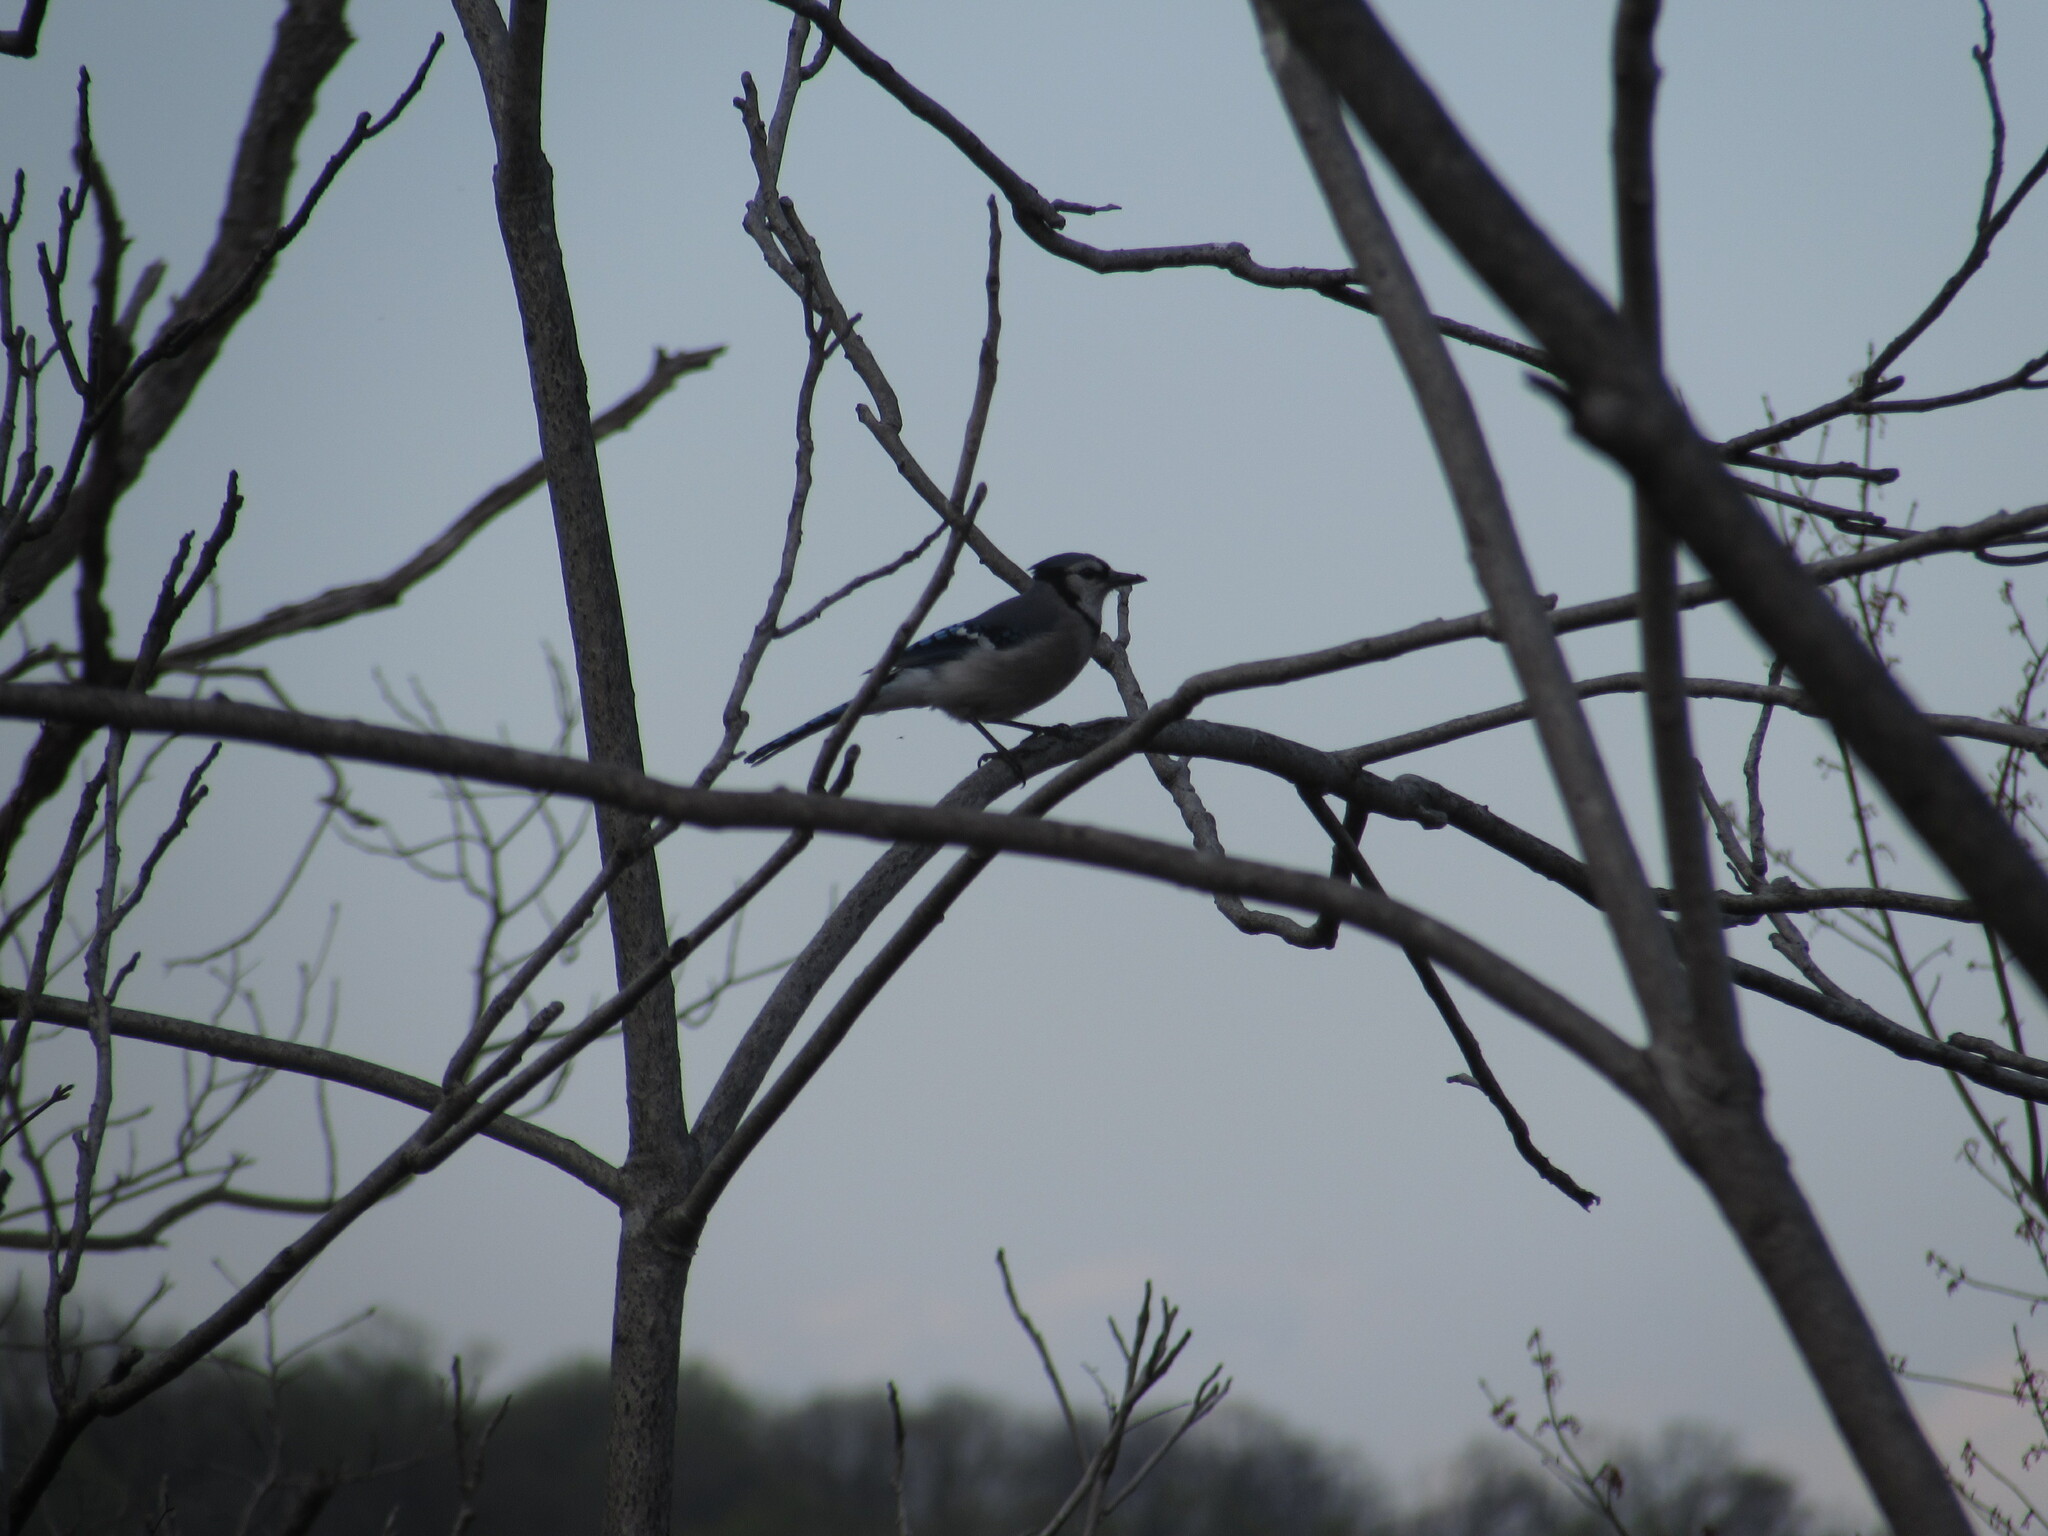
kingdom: Animalia
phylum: Chordata
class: Aves
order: Passeriformes
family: Corvidae
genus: Cyanocitta
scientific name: Cyanocitta cristata
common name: Blue jay
